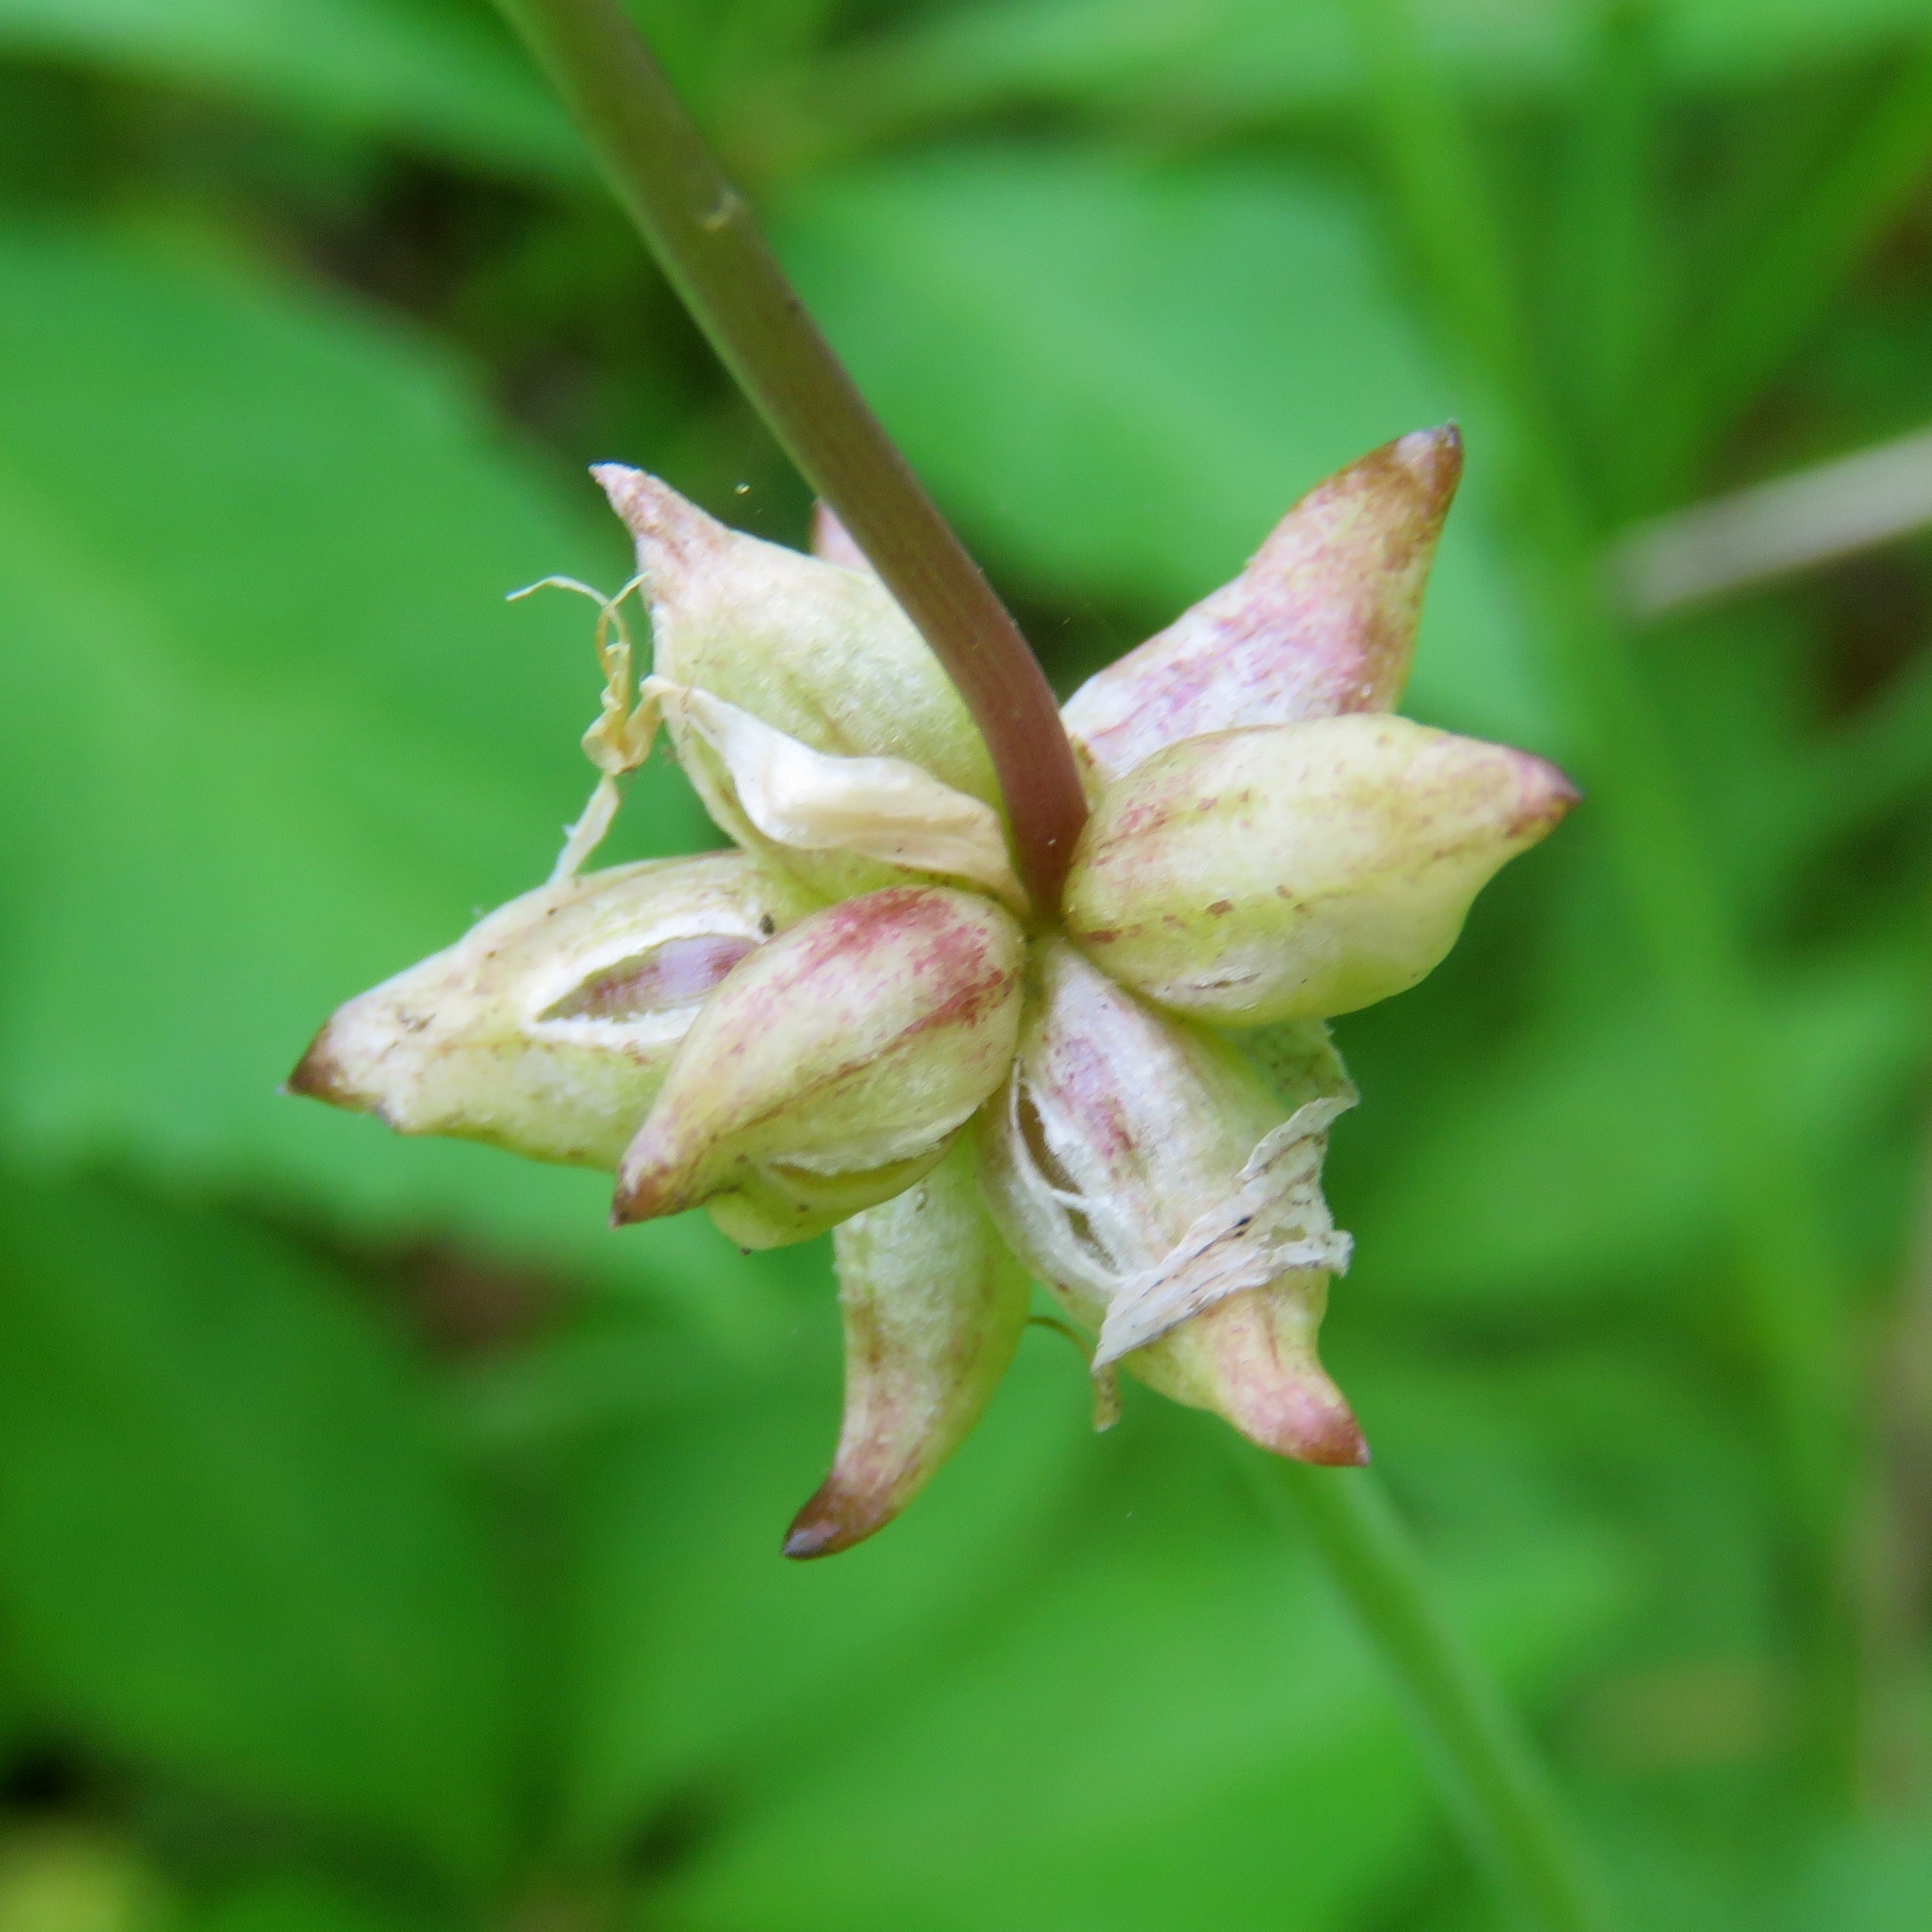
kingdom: Plantae
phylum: Tracheophyta
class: Liliopsida
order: Asparagales
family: Amaryllidaceae
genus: Allium
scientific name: Allium canadense
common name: Meadow garlic
